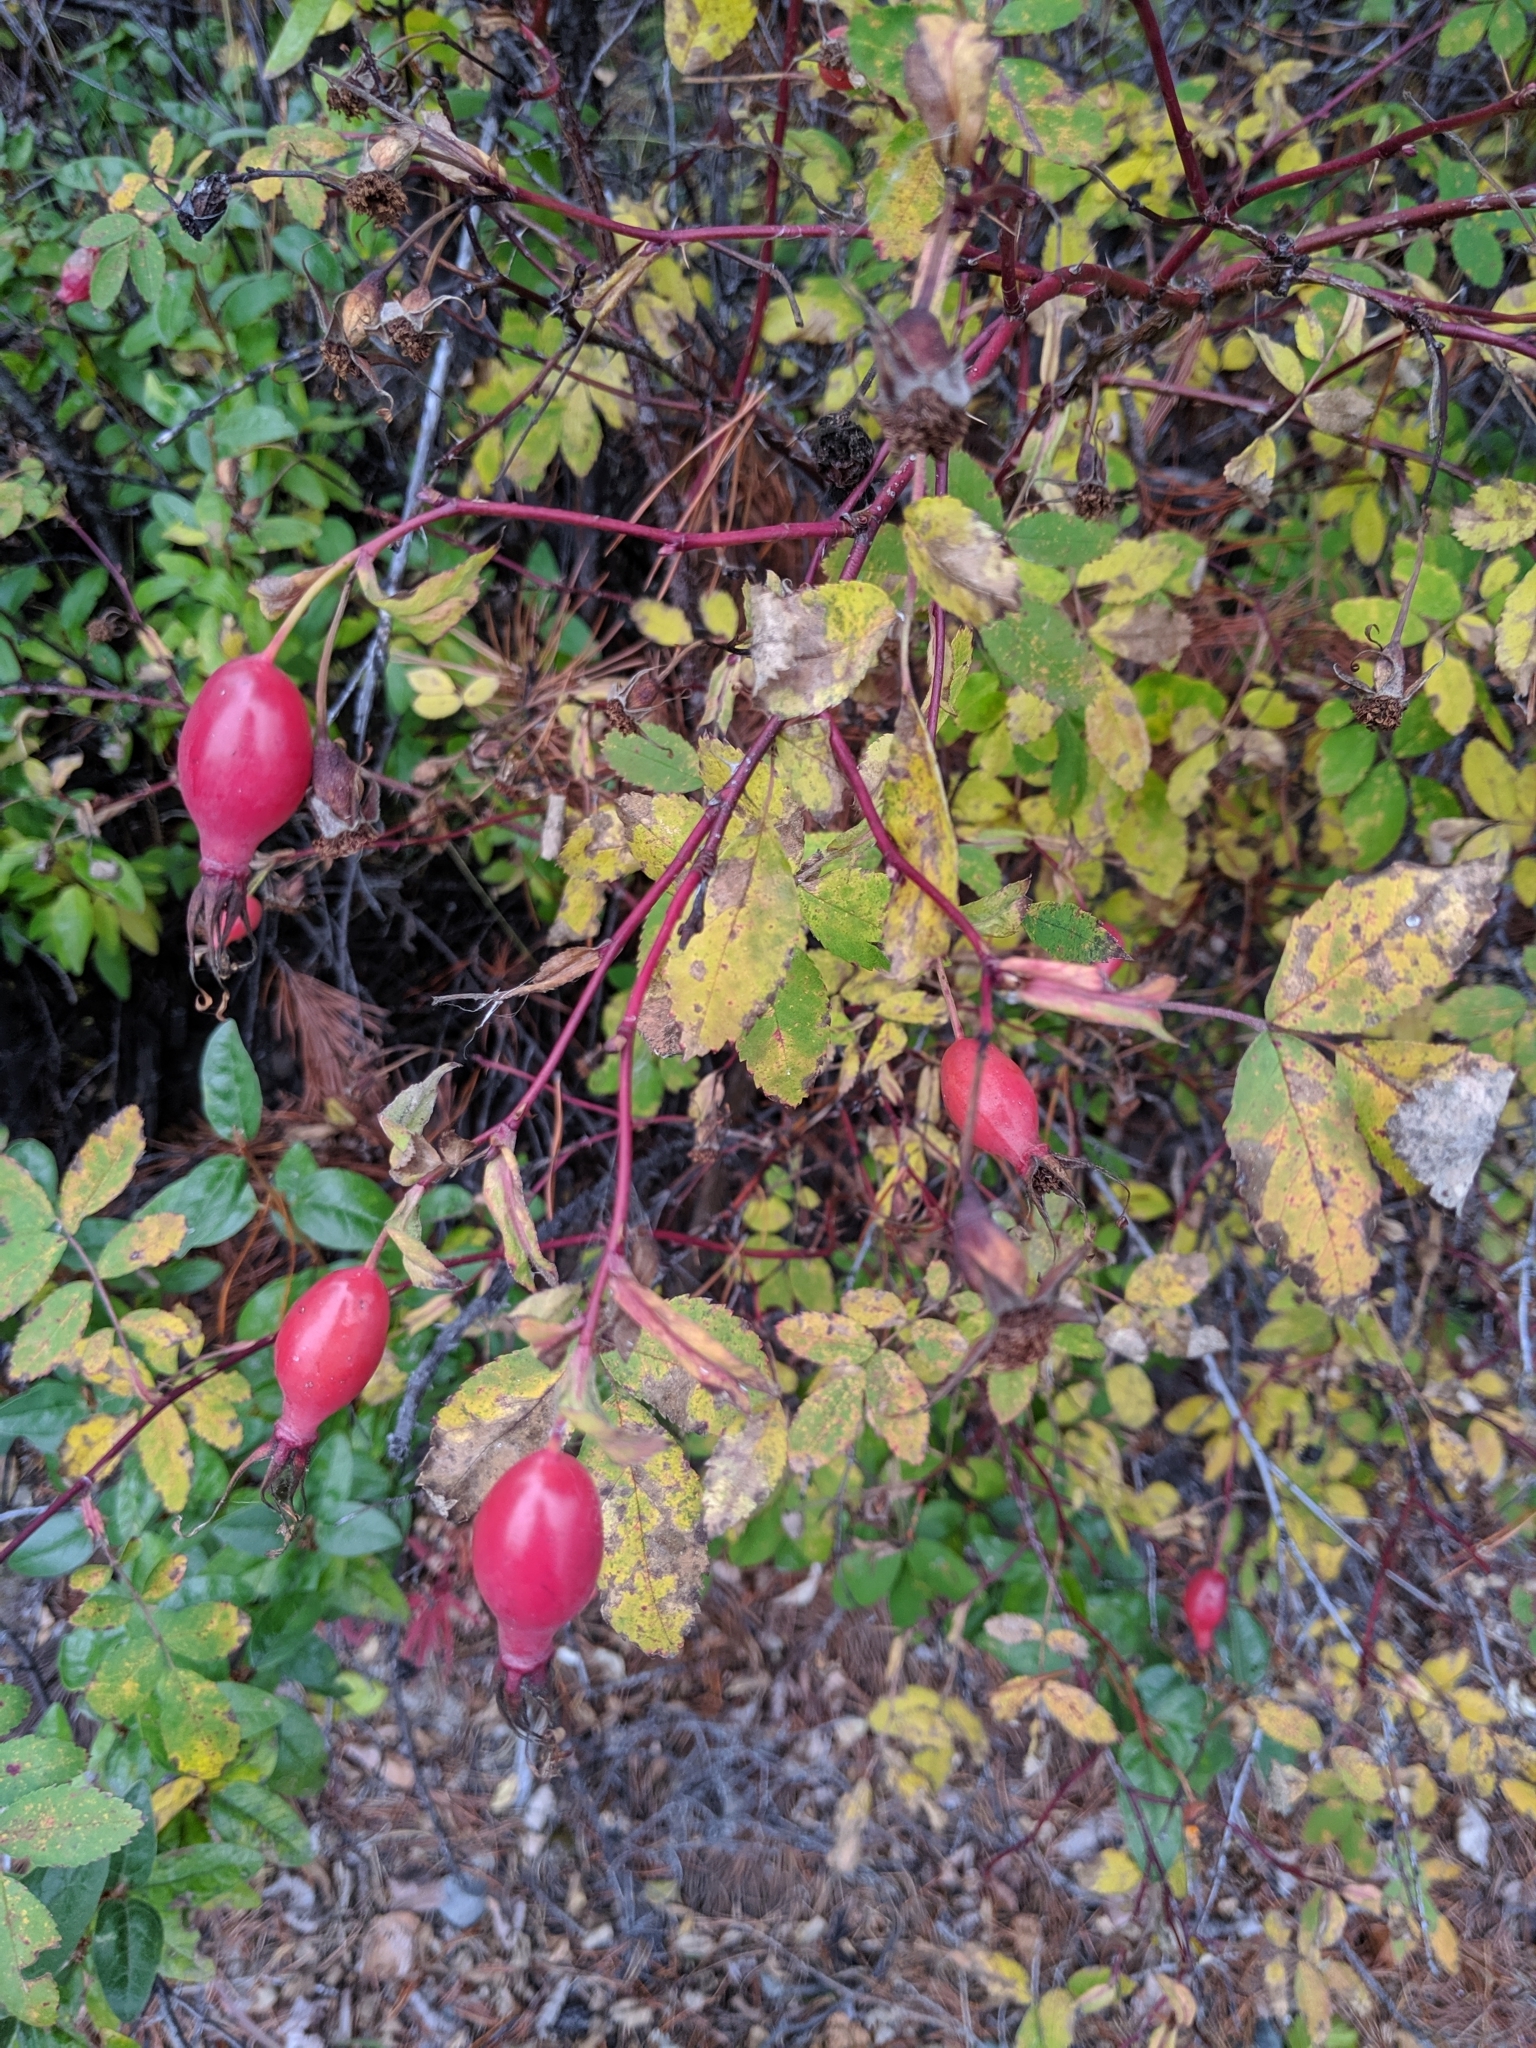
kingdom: Plantae
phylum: Tracheophyta
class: Magnoliopsida
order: Rosales
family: Rosaceae
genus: Rosa
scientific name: Rosa acicularis
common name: Prickly rose
